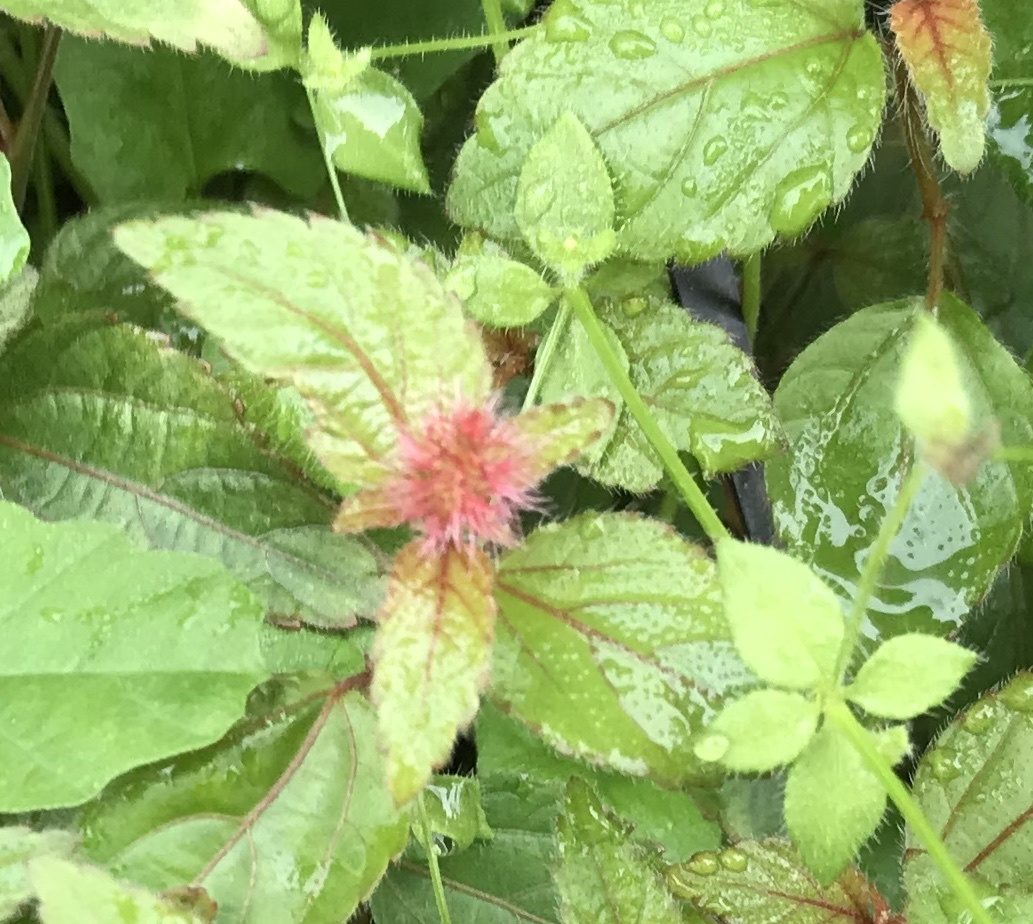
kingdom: Plantae
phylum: Tracheophyta
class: Magnoliopsida
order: Malpighiales
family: Euphorbiaceae
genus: Acalypha
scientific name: Acalypha phleoides
